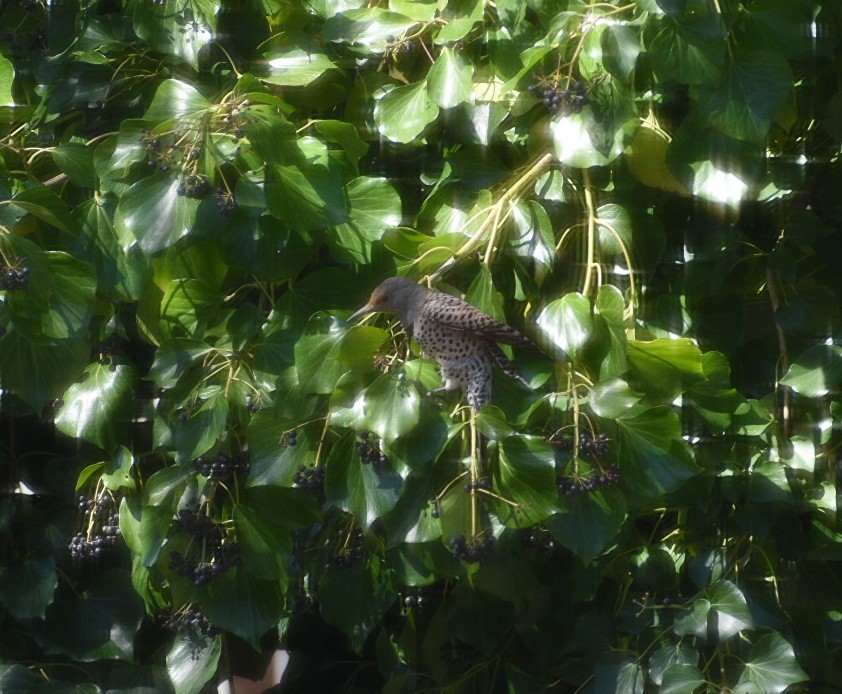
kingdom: Animalia
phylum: Chordata
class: Aves
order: Piciformes
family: Picidae
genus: Colaptes
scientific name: Colaptes auratus
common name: Northern flicker
